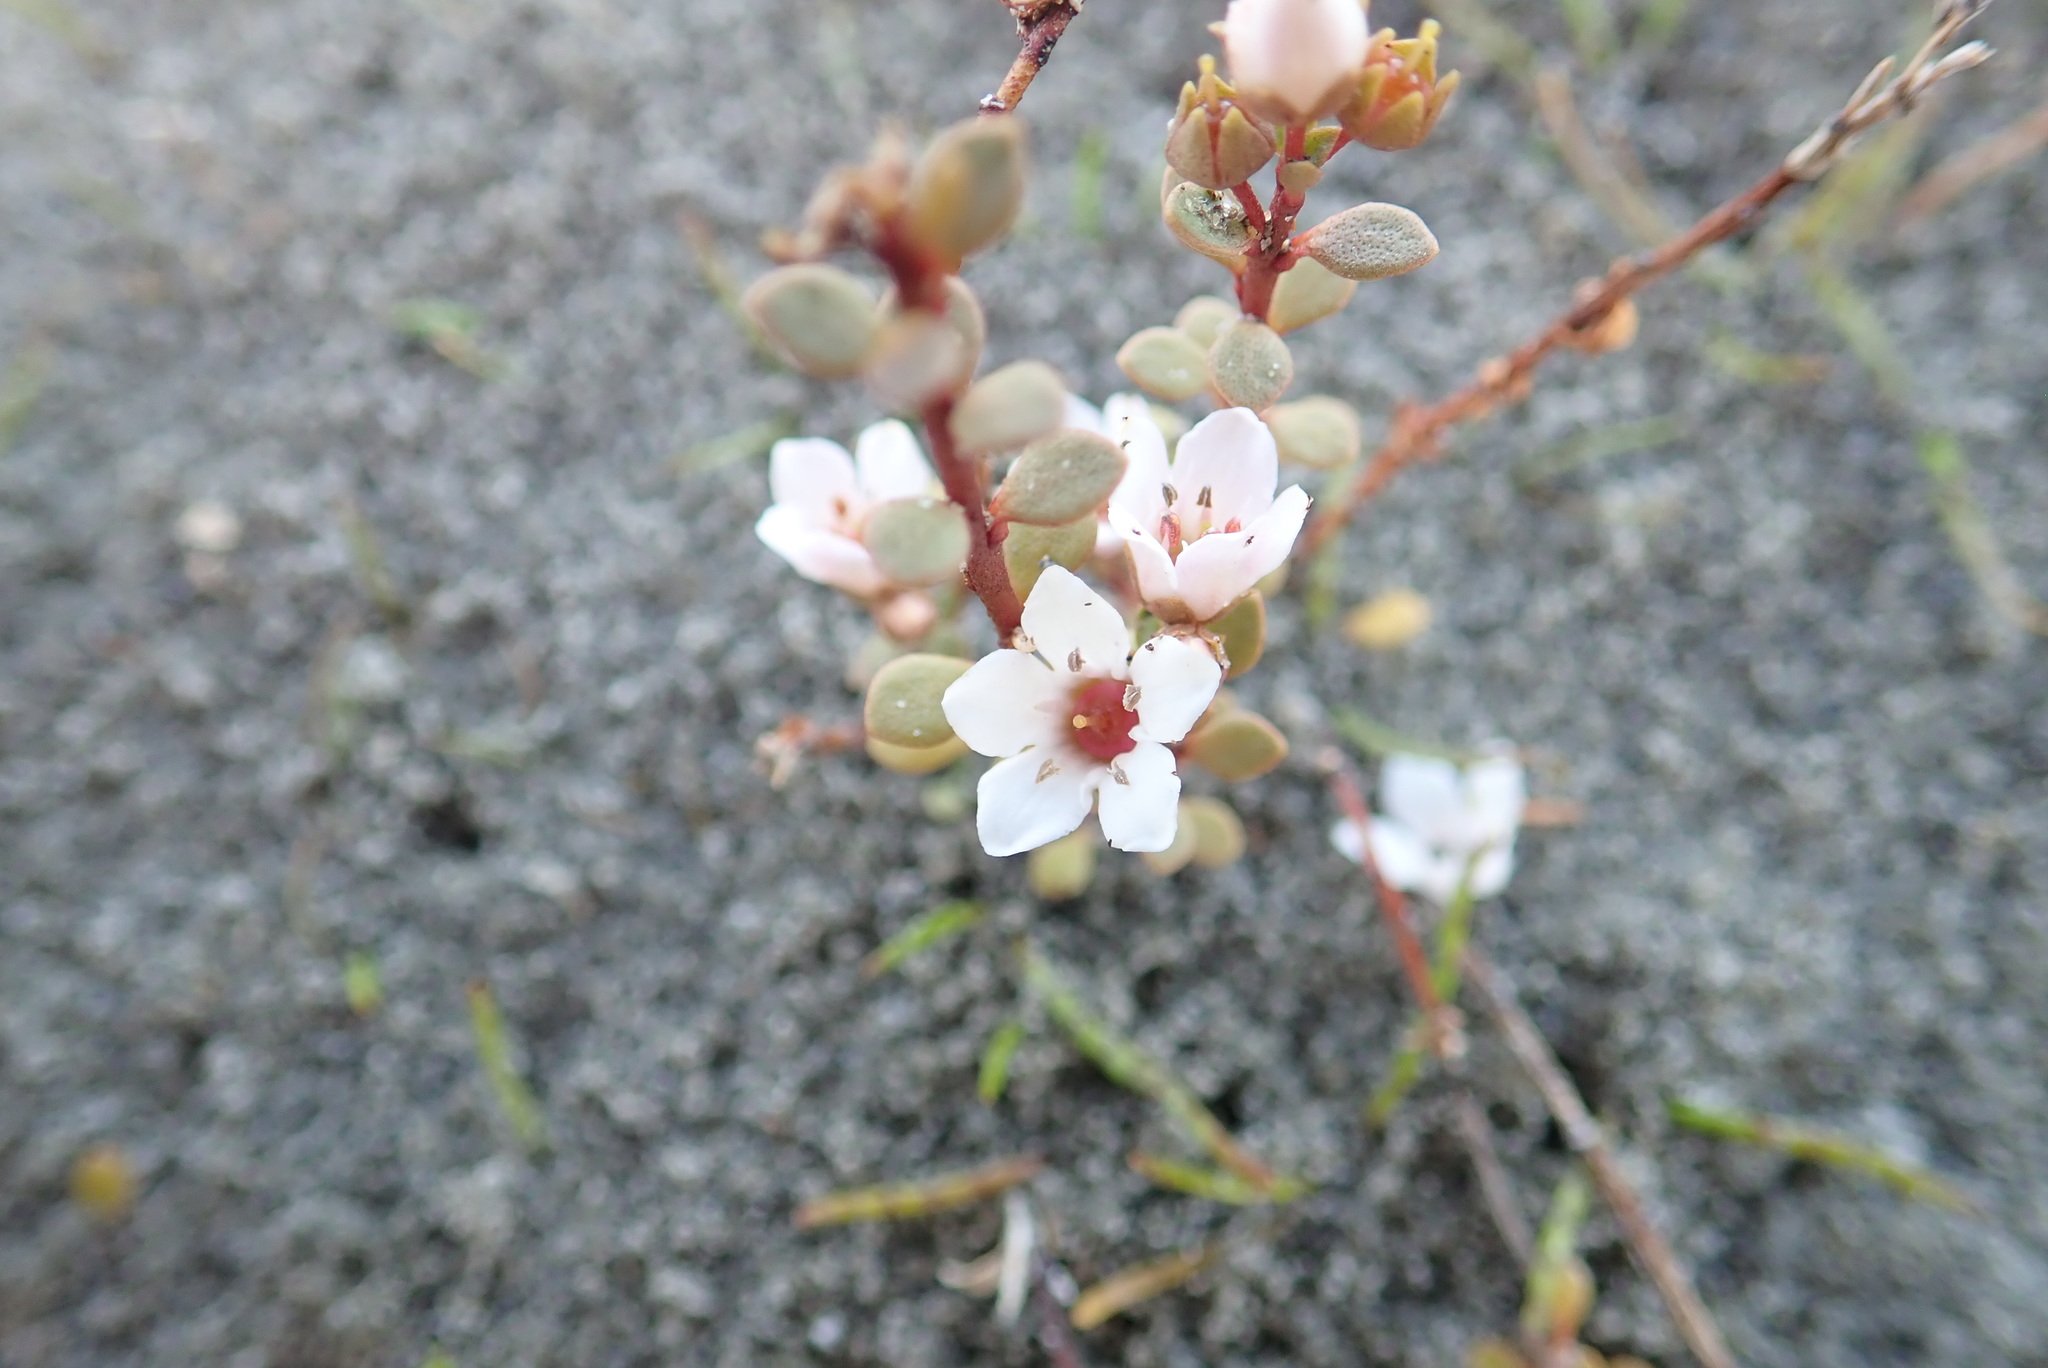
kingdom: Plantae
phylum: Tracheophyta
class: Magnoliopsida
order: Ericales
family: Primulaceae
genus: Samolus
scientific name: Samolus repens
